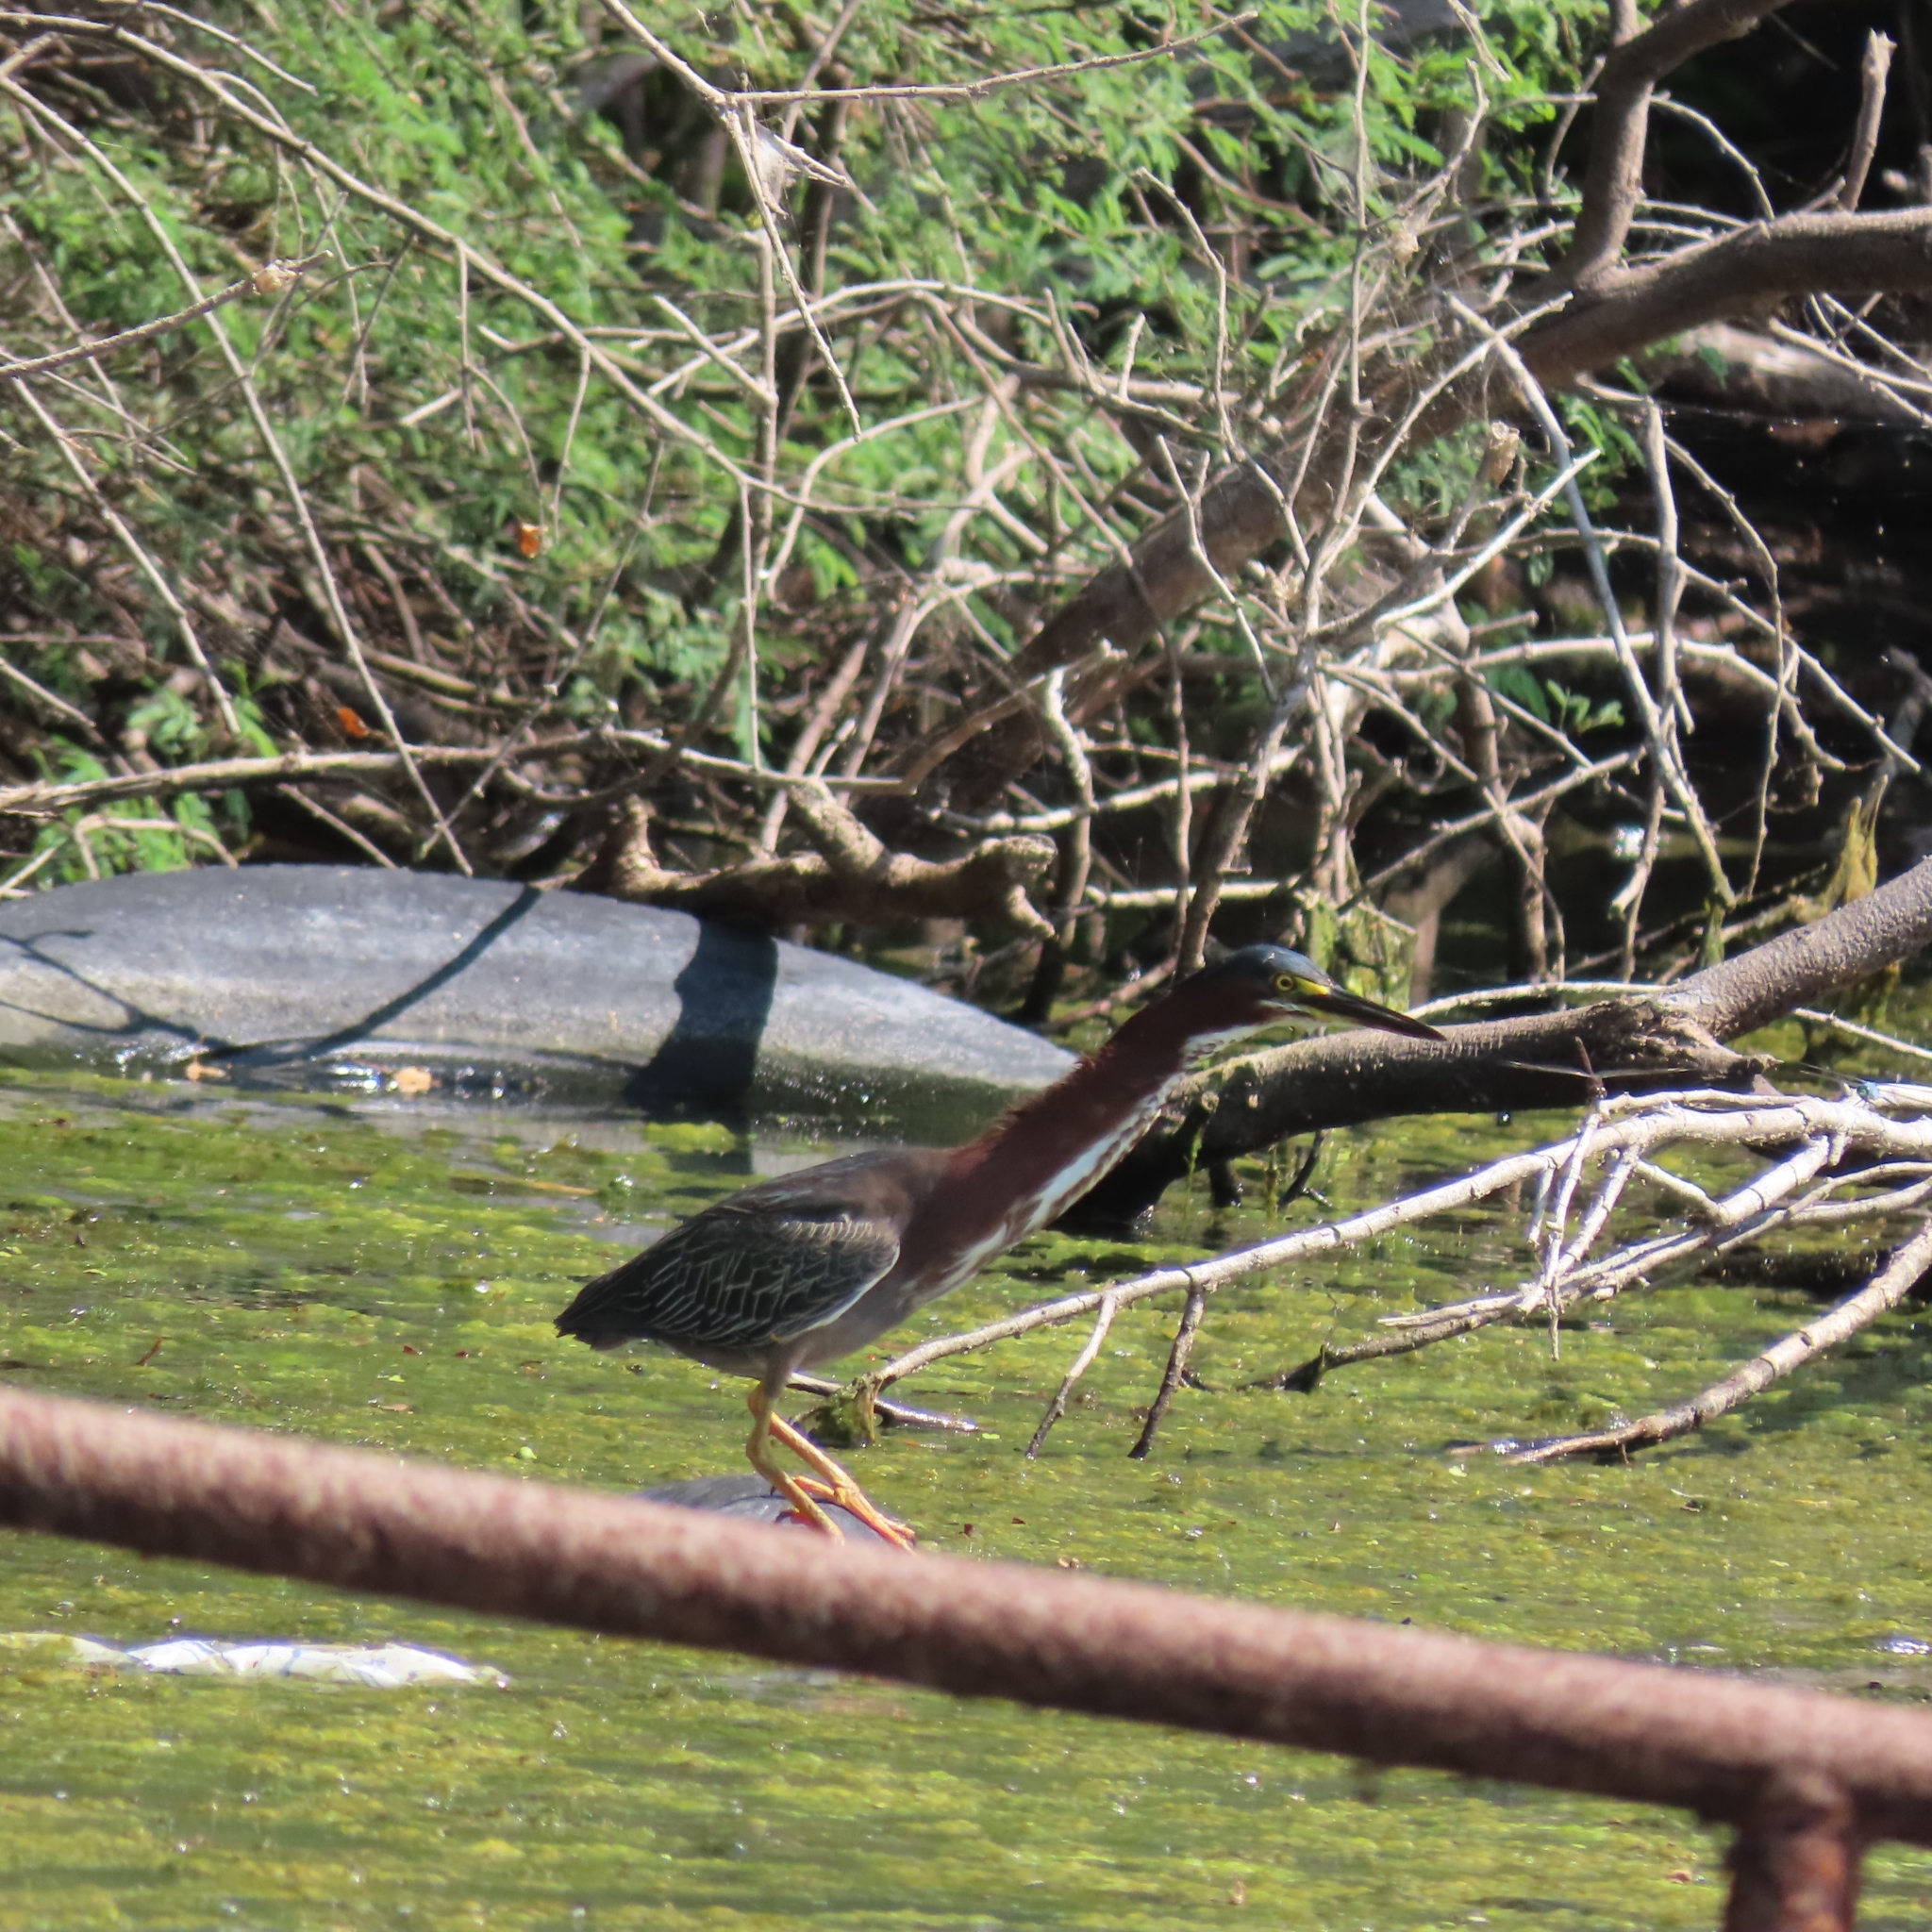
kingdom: Animalia
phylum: Chordata
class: Aves
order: Pelecaniformes
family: Ardeidae
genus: Butorides
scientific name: Butorides virescens
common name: Green heron
